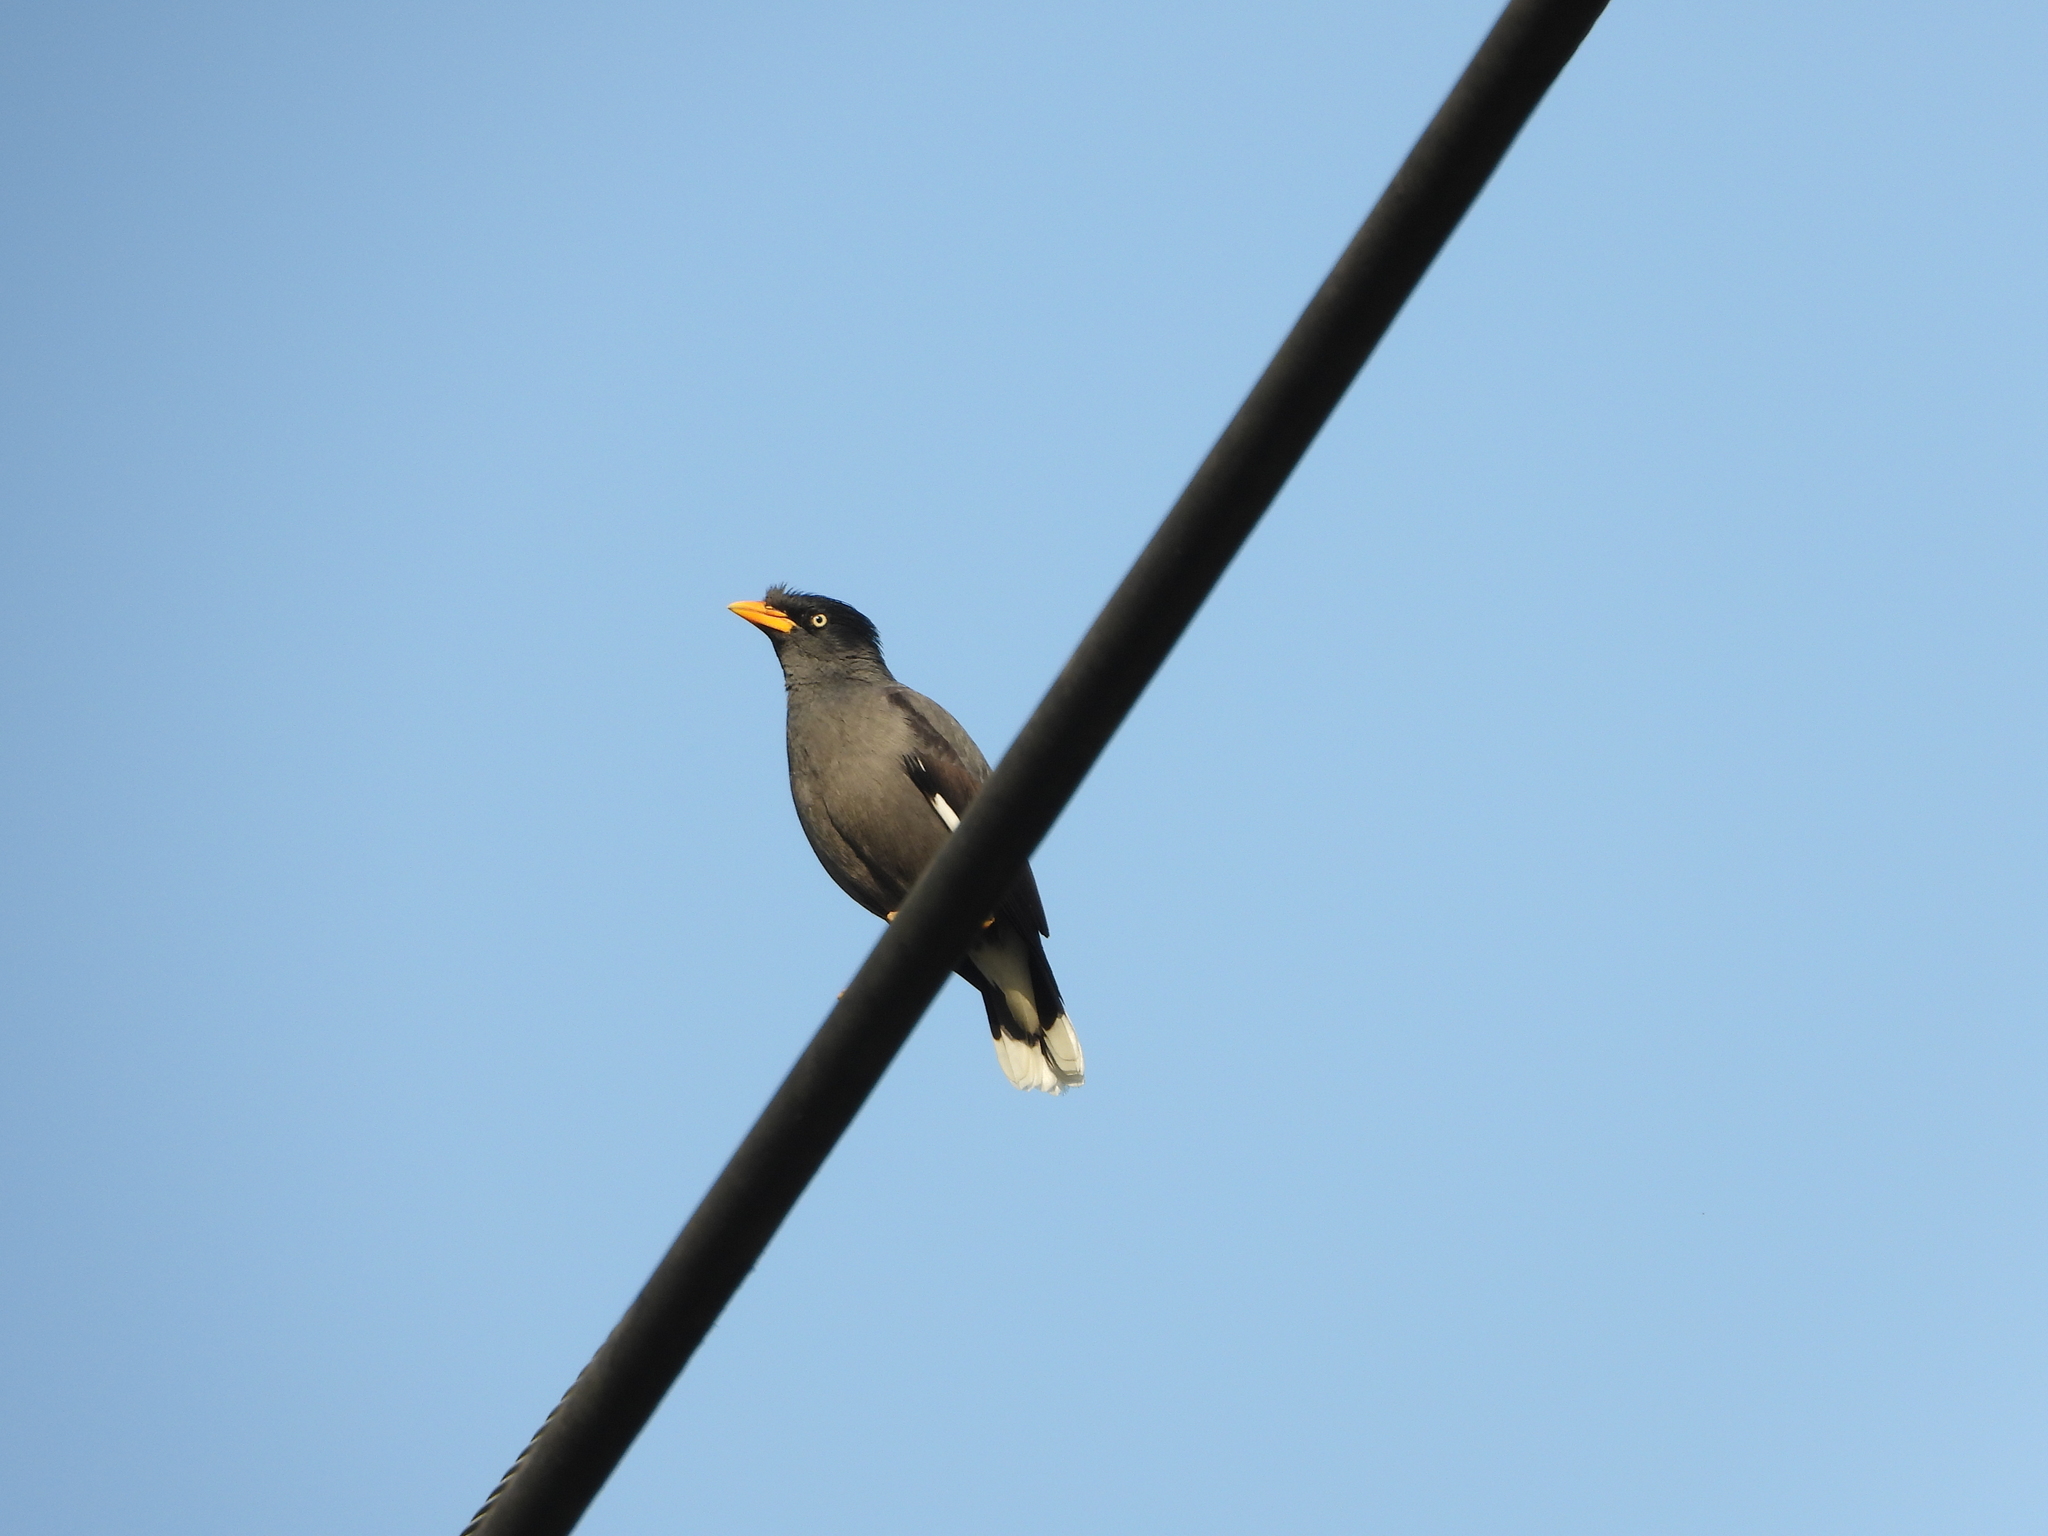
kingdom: Animalia
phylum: Chordata
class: Aves
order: Passeriformes
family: Sturnidae
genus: Acridotheres
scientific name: Acridotheres javanicus
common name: Javan myna
